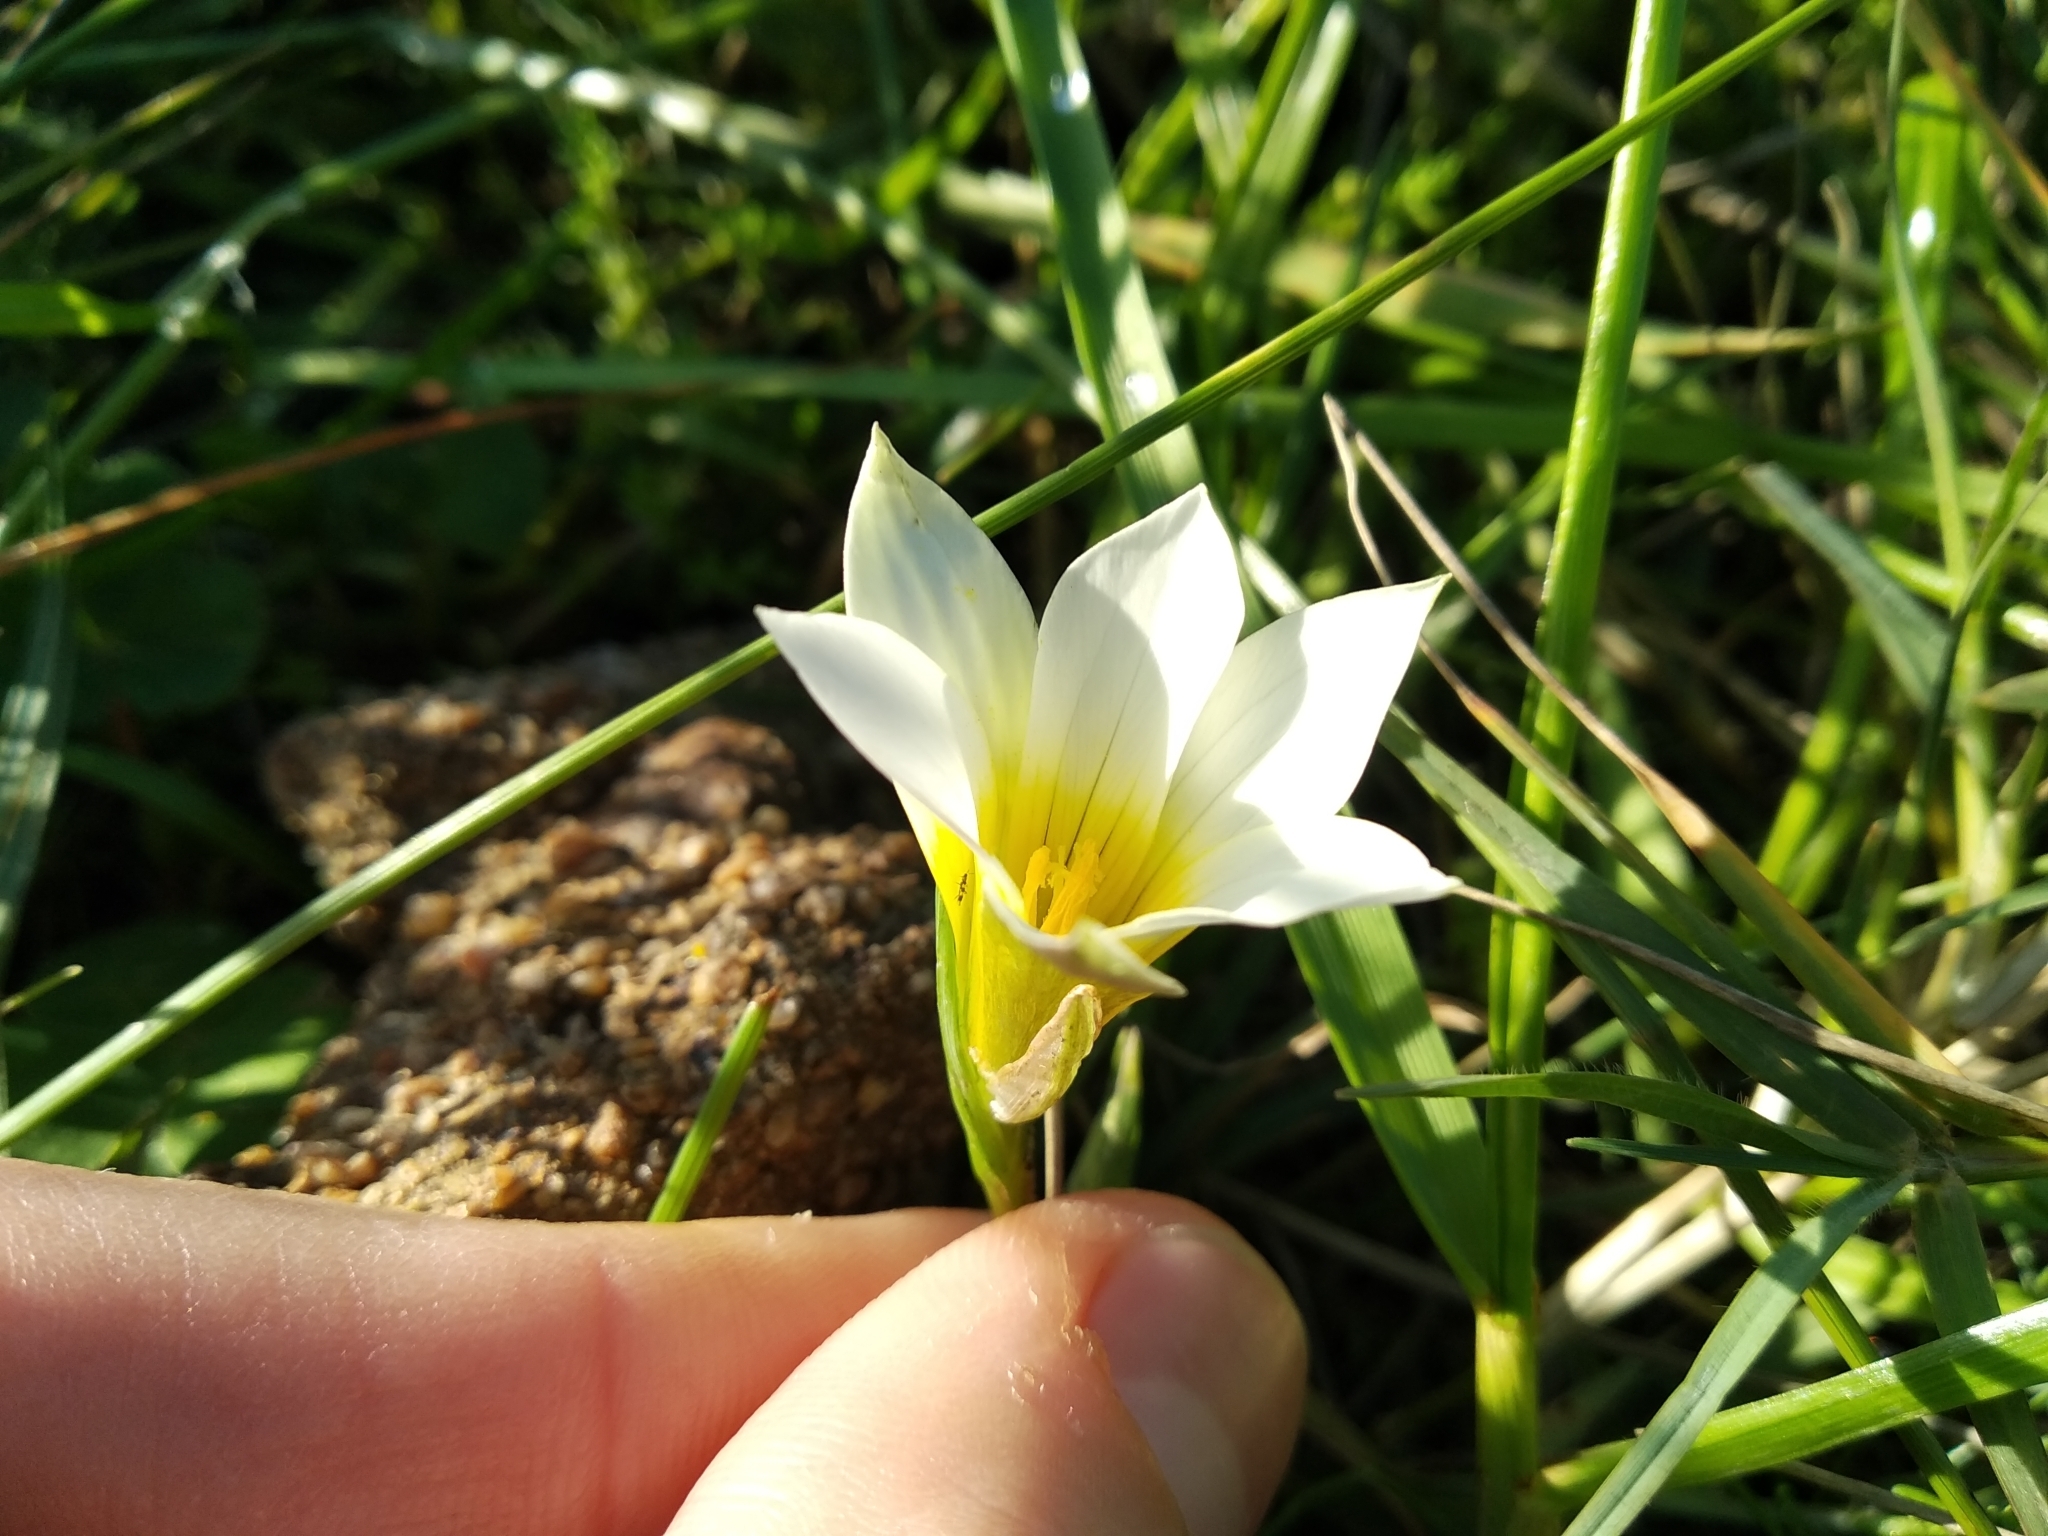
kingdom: Plantae
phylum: Tracheophyta
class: Liliopsida
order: Asparagales
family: Iridaceae
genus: Romulea
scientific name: Romulea flava
